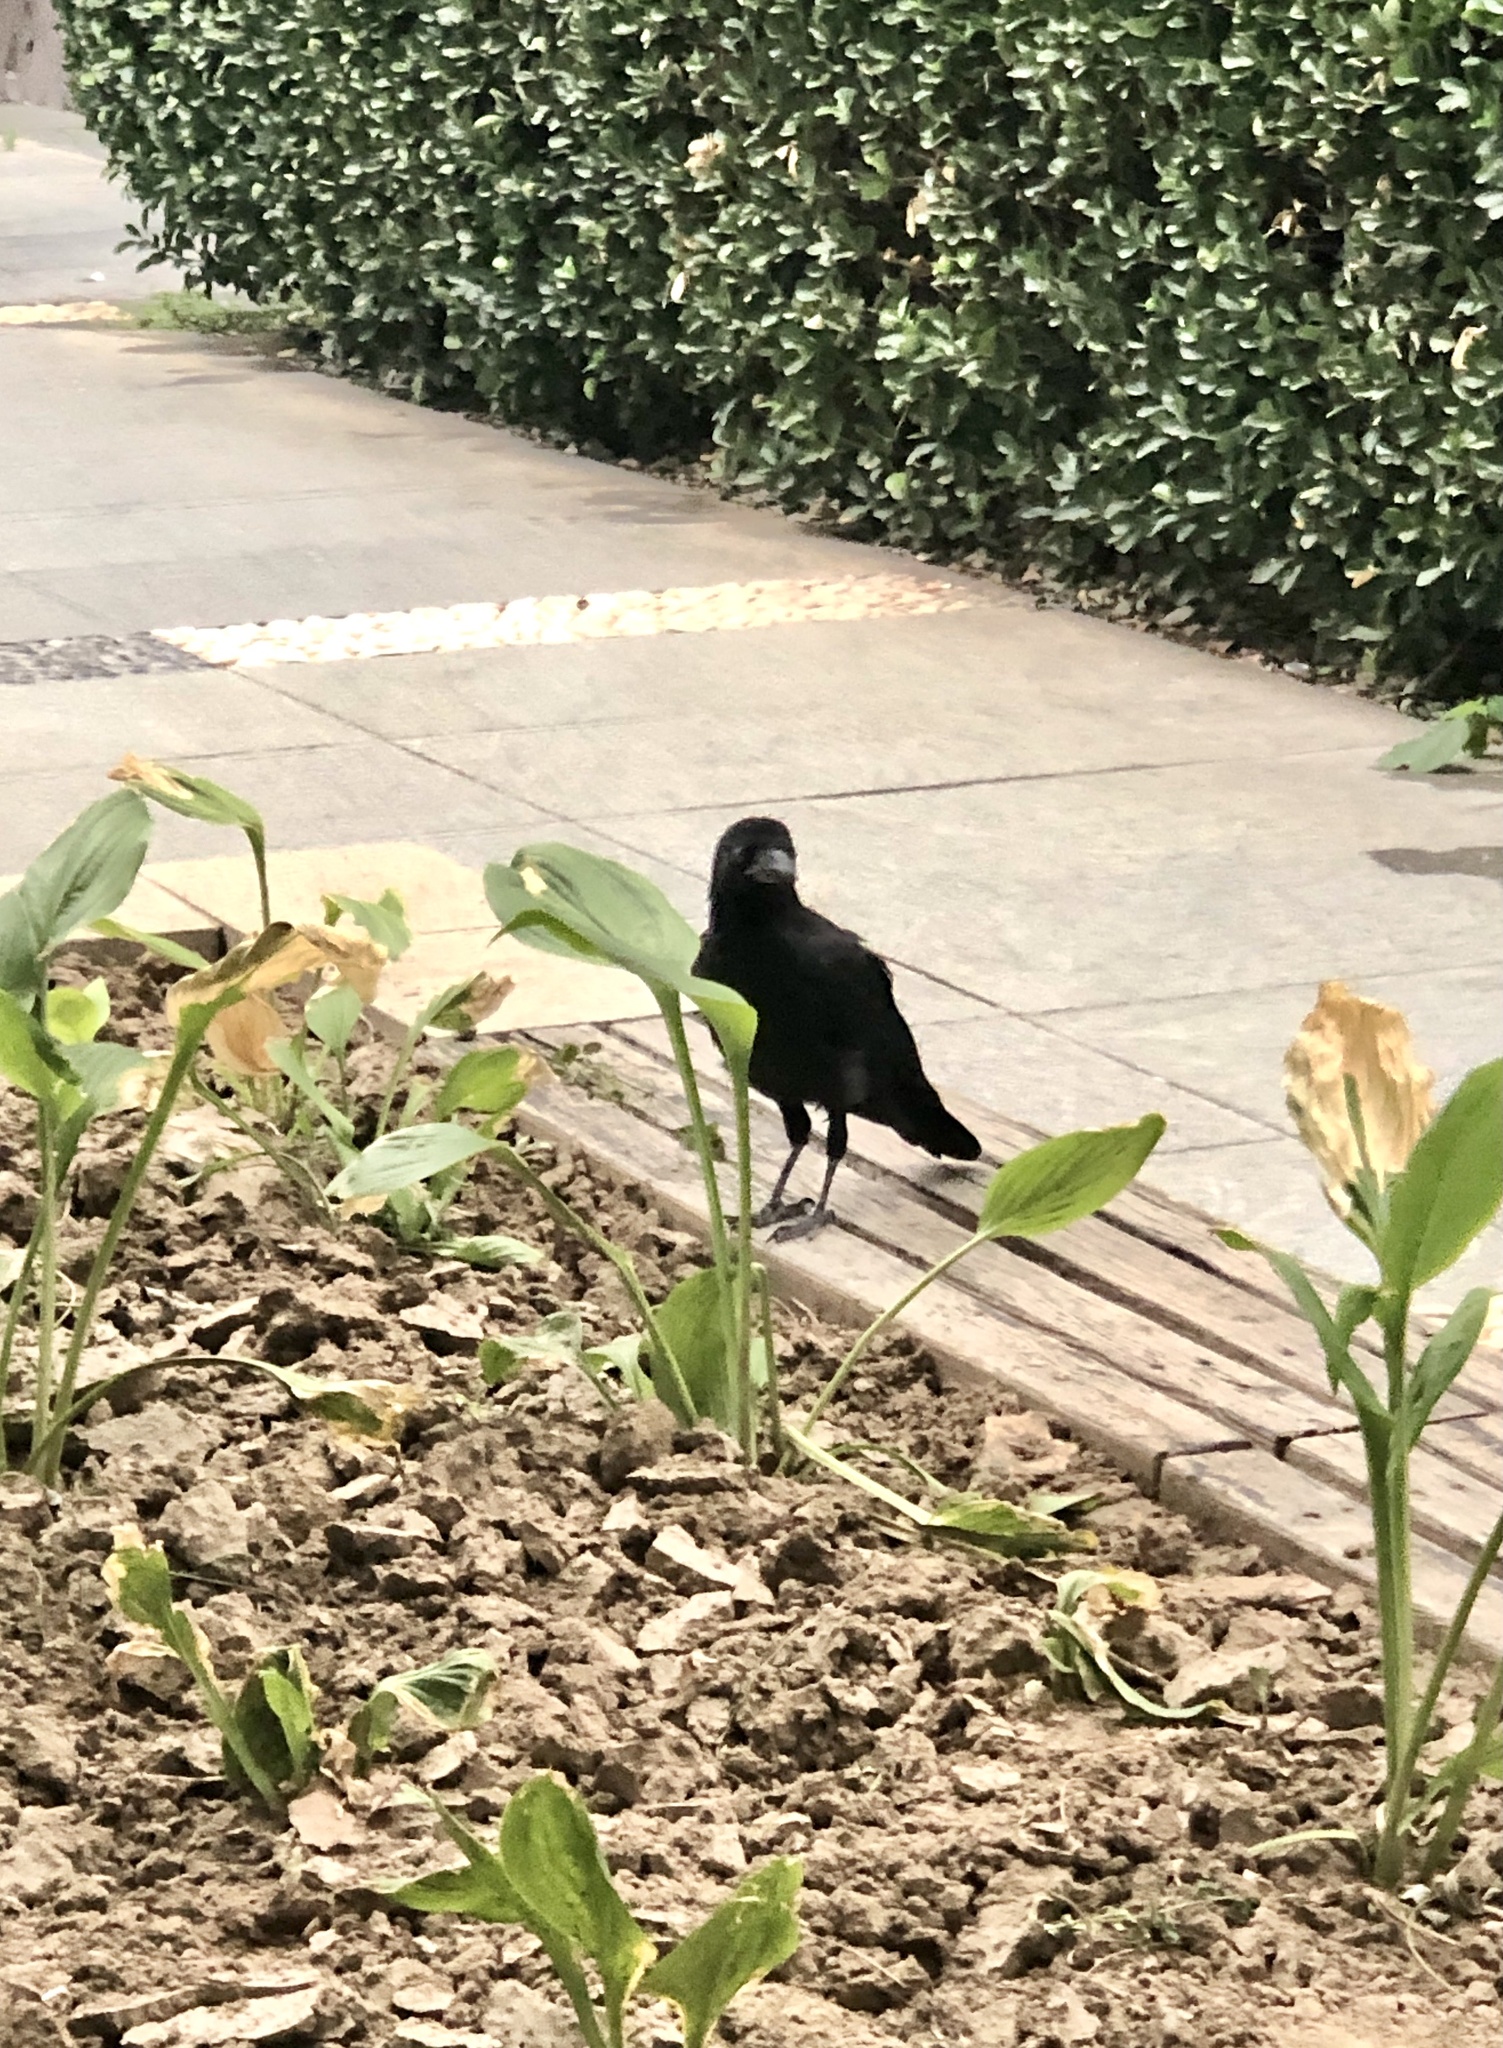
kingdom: Animalia
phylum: Chordata
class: Aves
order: Passeriformes
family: Corvidae
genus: Corvus
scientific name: Corvus macrorhynchos
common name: Large-billed crow
